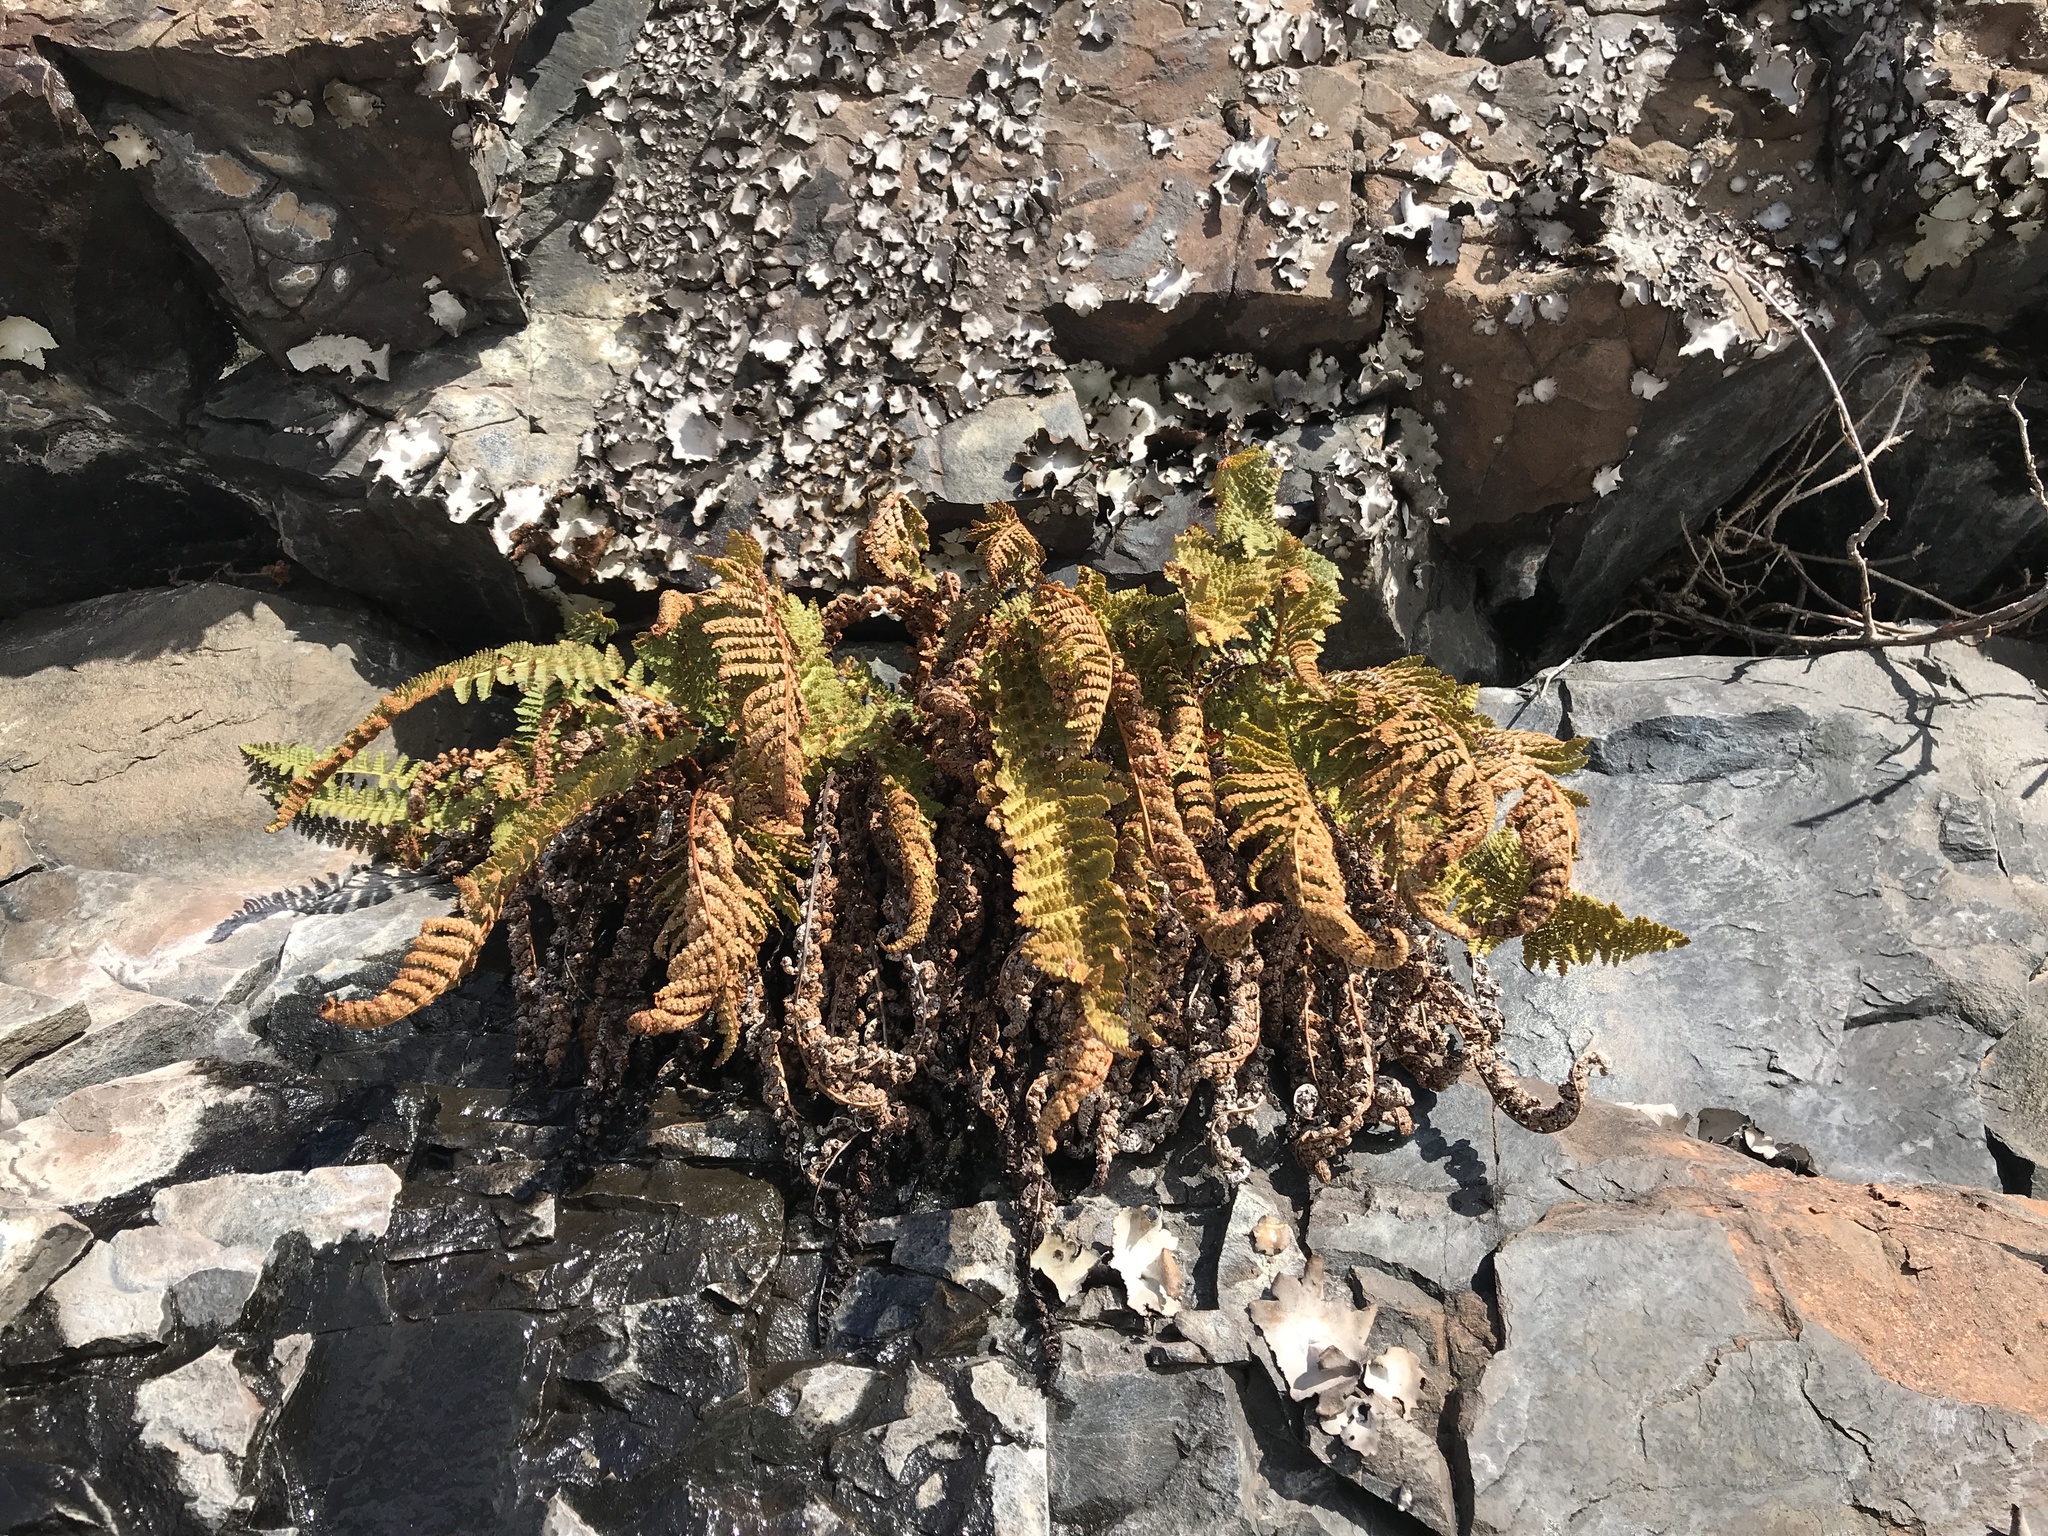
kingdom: Plantae
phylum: Tracheophyta
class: Polypodiopsida
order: Polypodiales
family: Dryopteridaceae
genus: Dryopteris
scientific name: Dryopteris fragrans
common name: Fragrant wood fern
